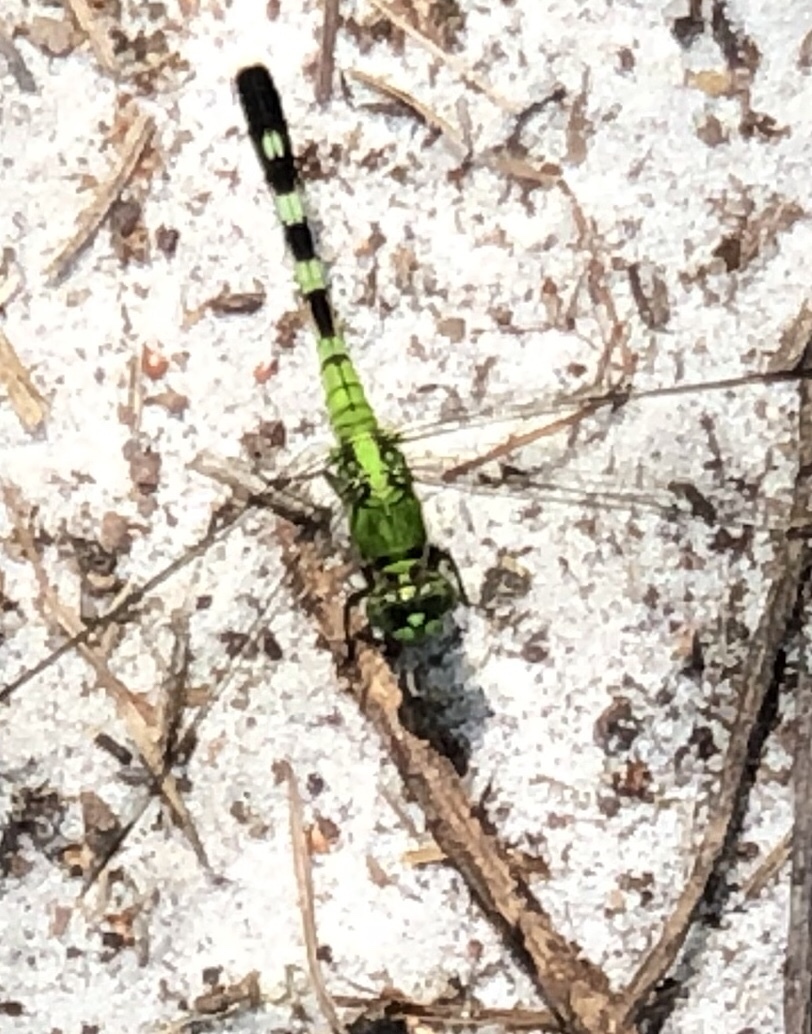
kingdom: Animalia
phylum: Arthropoda
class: Insecta
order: Odonata
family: Libellulidae
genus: Erythemis
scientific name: Erythemis simplicicollis
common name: Eastern pondhawk
